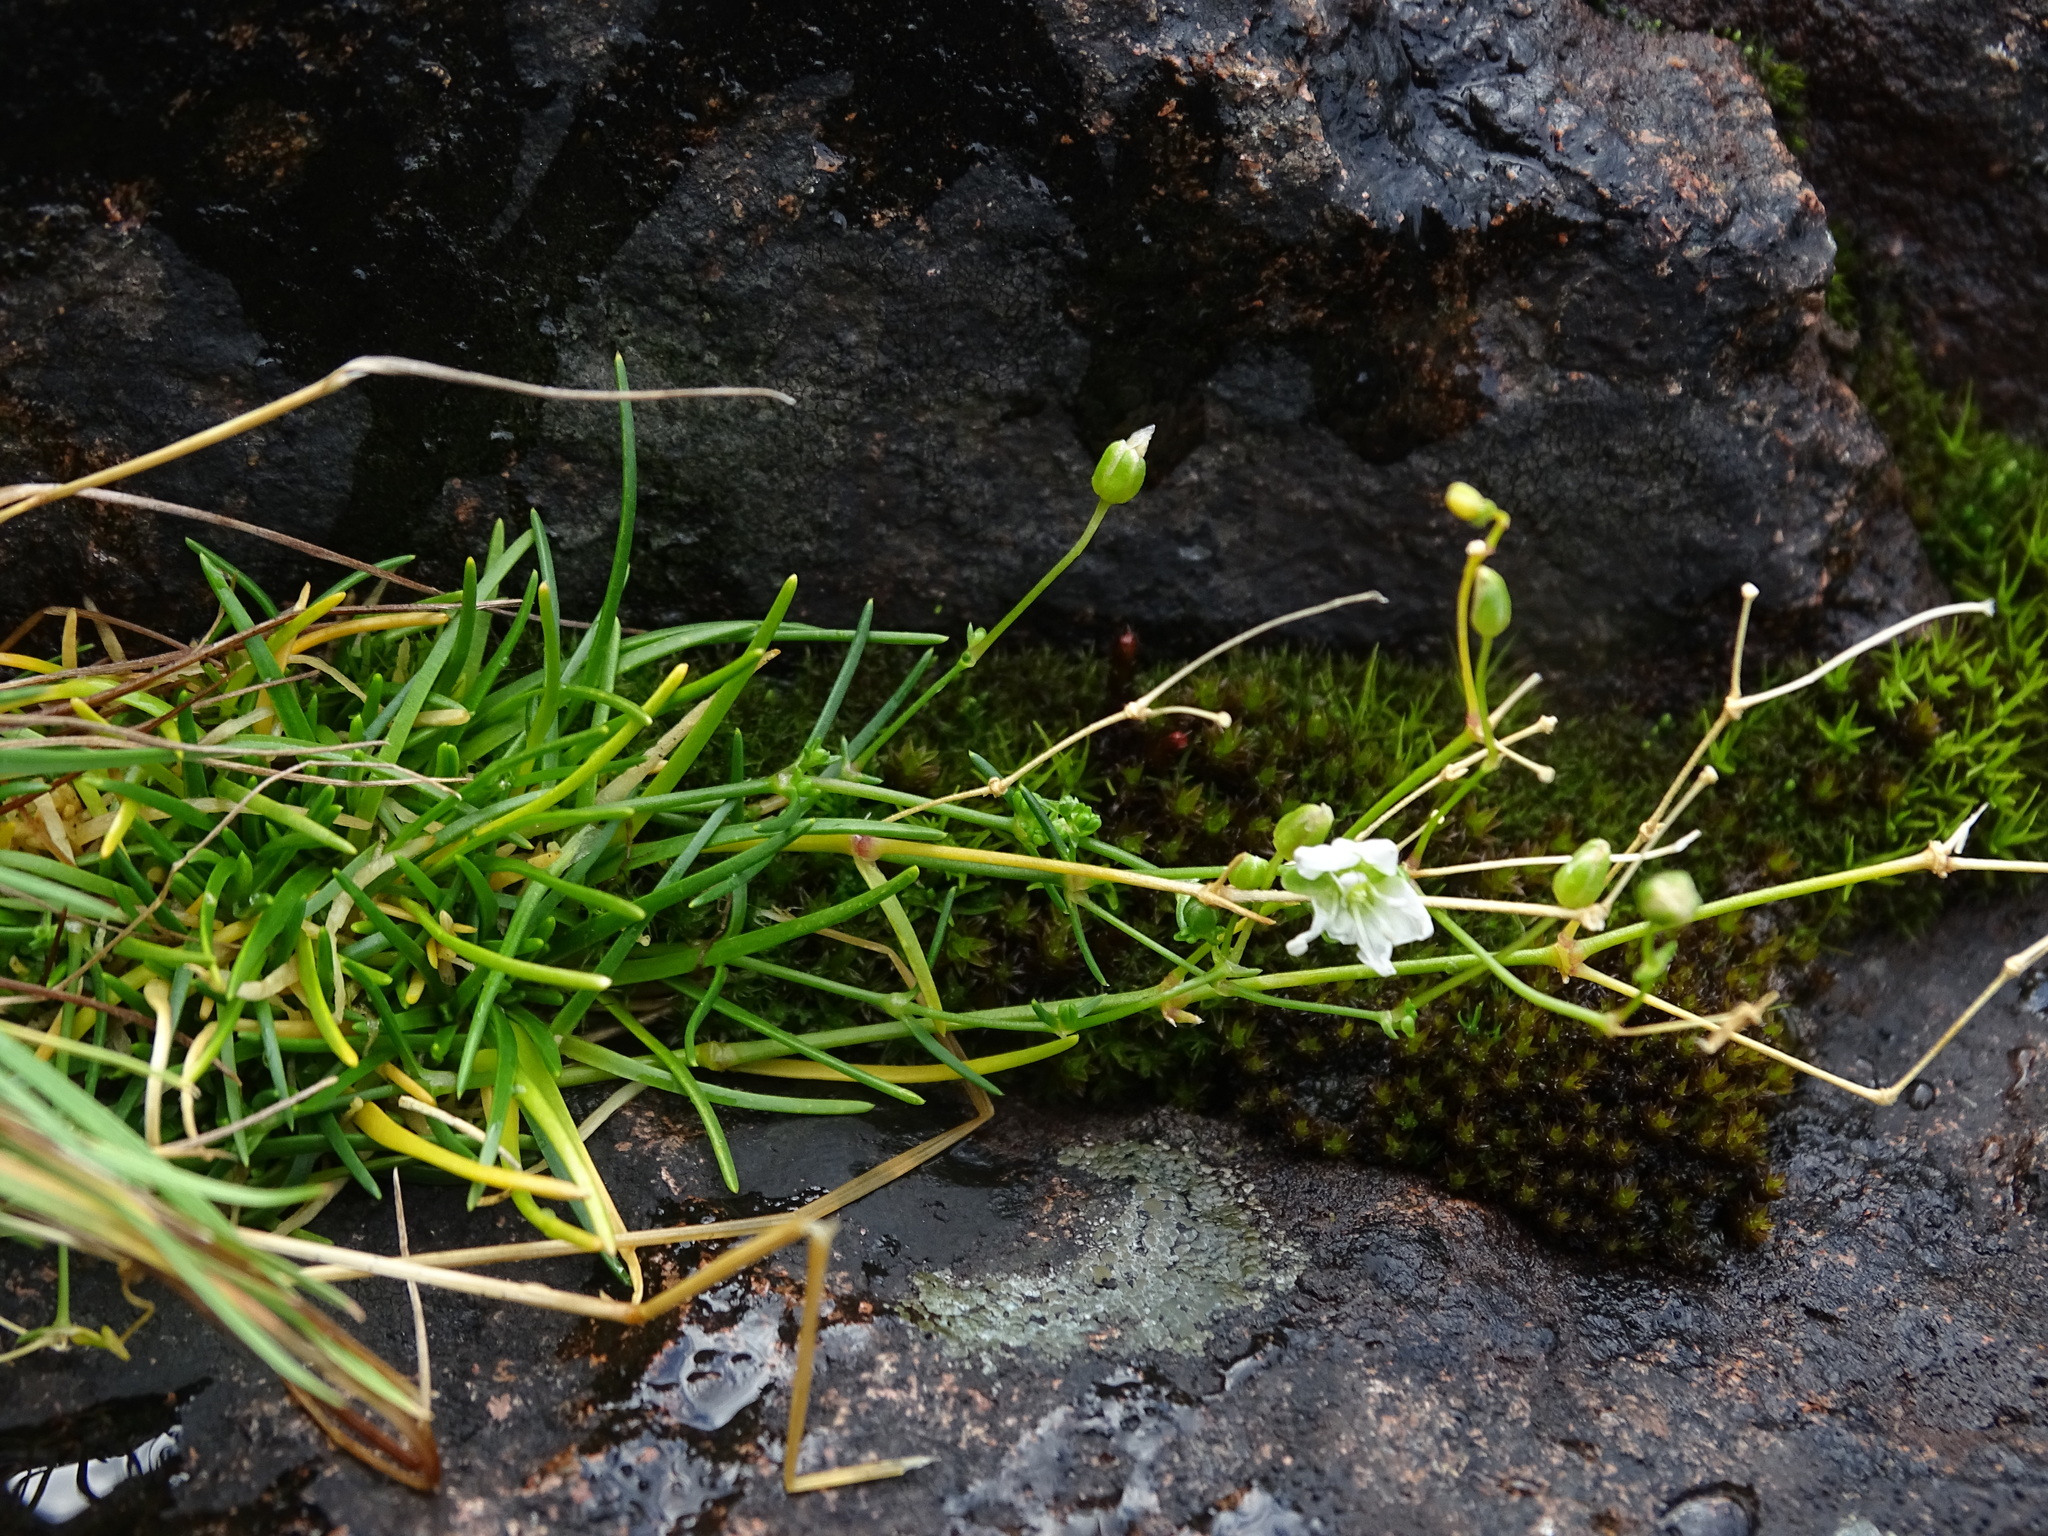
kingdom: Plantae
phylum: Tracheophyta
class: Magnoliopsida
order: Caryophyllales
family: Caryophyllaceae
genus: Sabulina
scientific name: Sabulina dawsonensis
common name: Dawson's cockle
